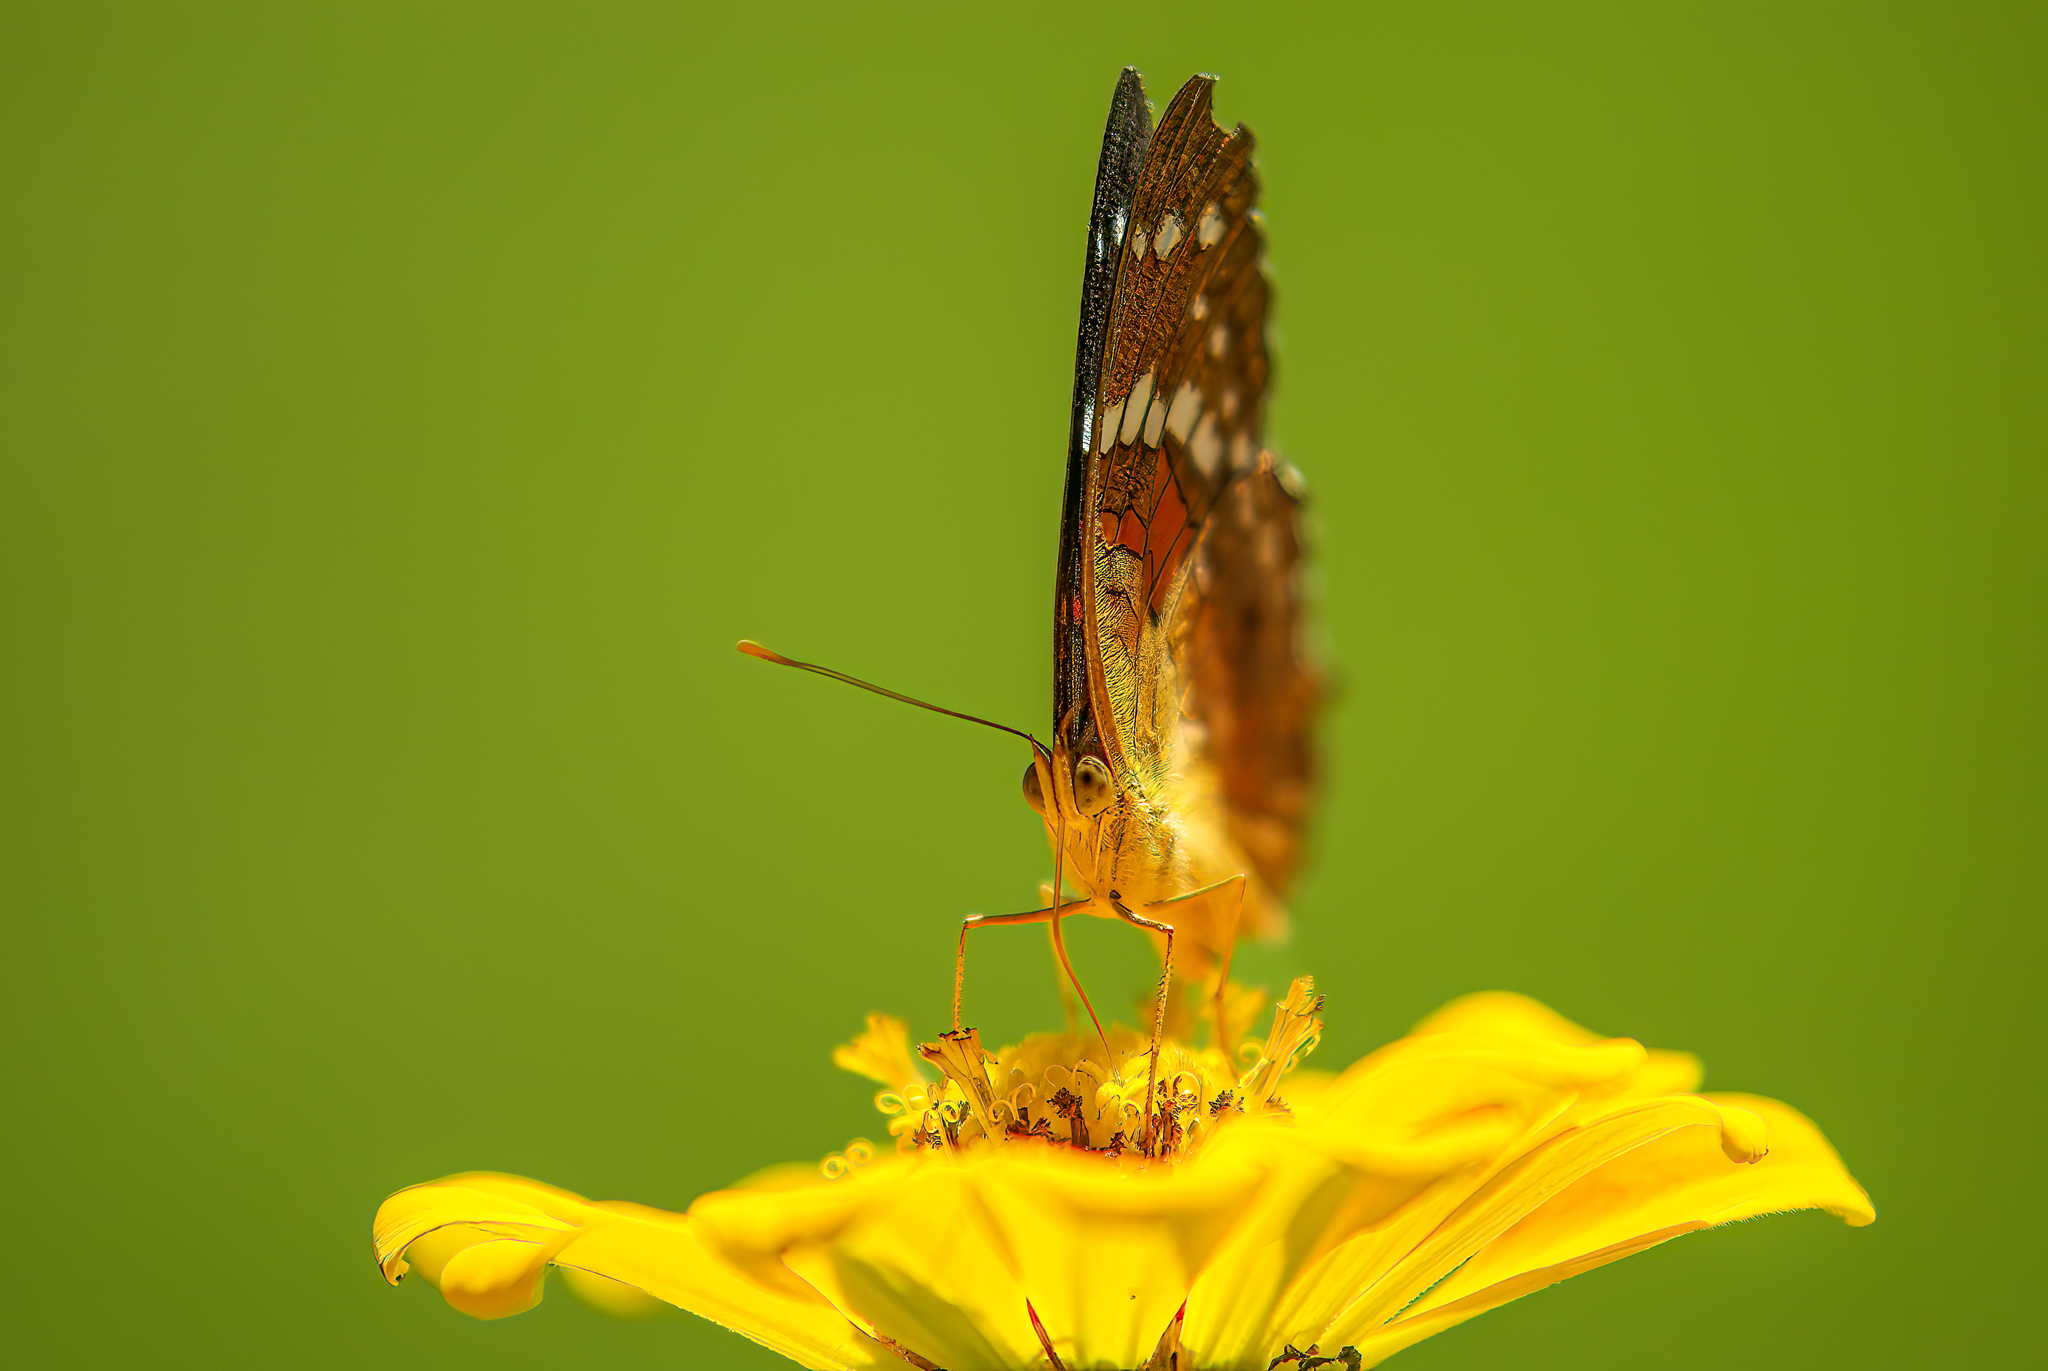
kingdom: Animalia
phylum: Arthropoda
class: Insecta
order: Lepidoptera
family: Nymphalidae
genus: Anartia
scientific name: Anartia amathea
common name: Red peacock
